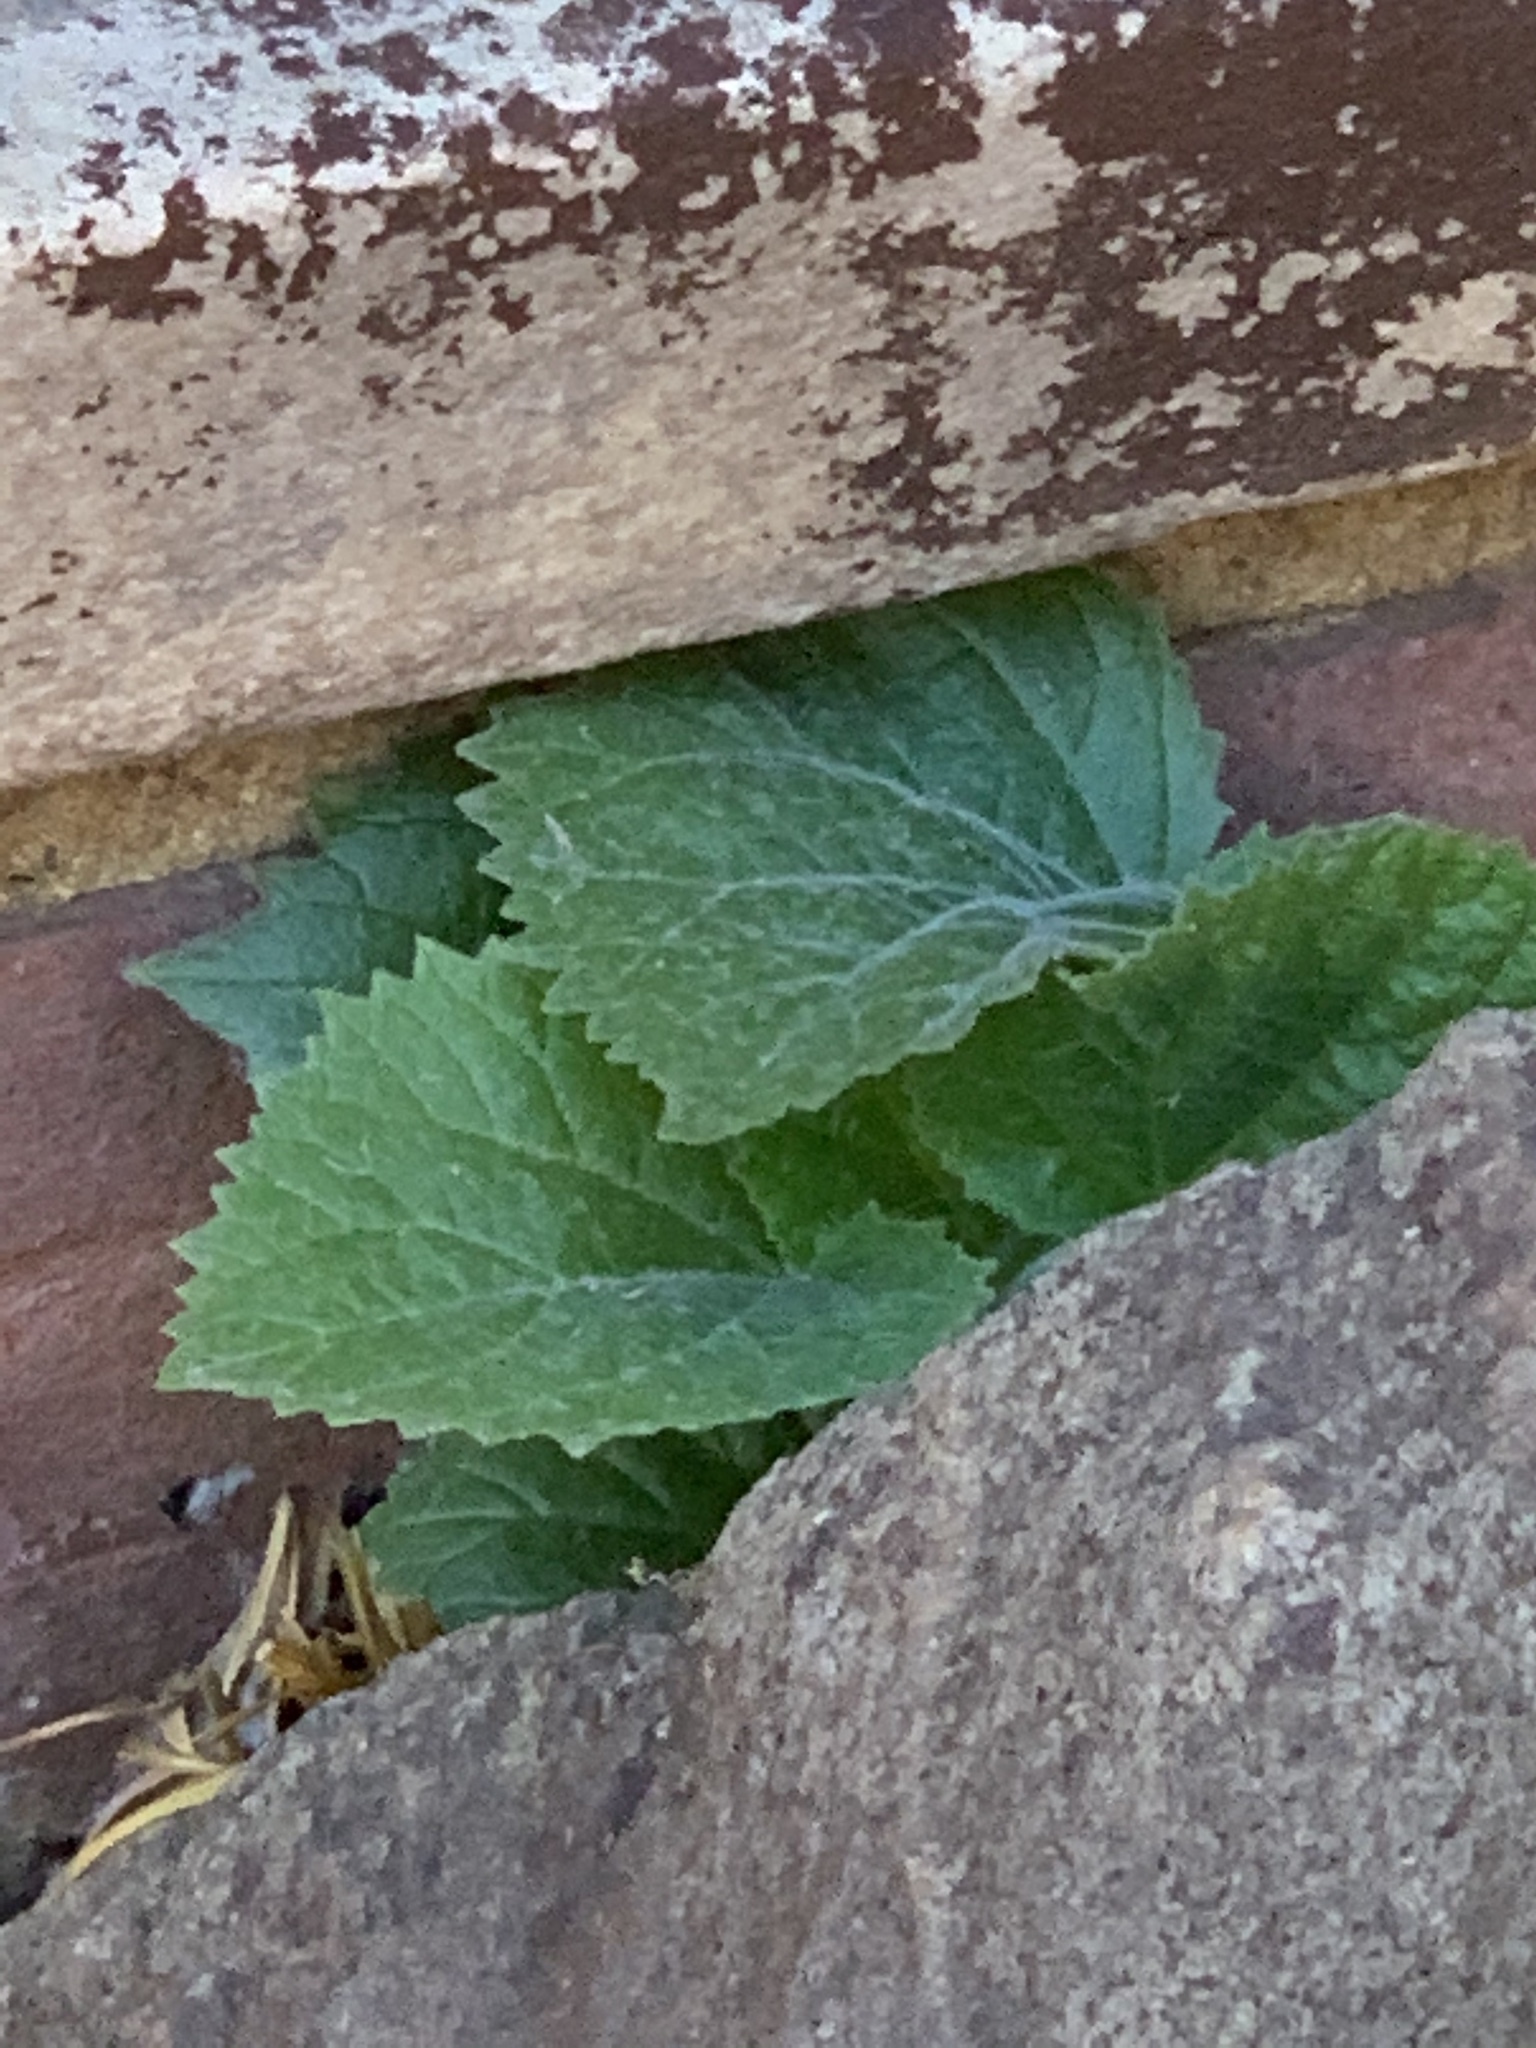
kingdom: Plantae
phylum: Tracheophyta
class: Magnoliopsida
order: Lamiales
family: Paulowniaceae
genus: Paulownia
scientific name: Paulownia tomentosa
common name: Foxglove-tree
